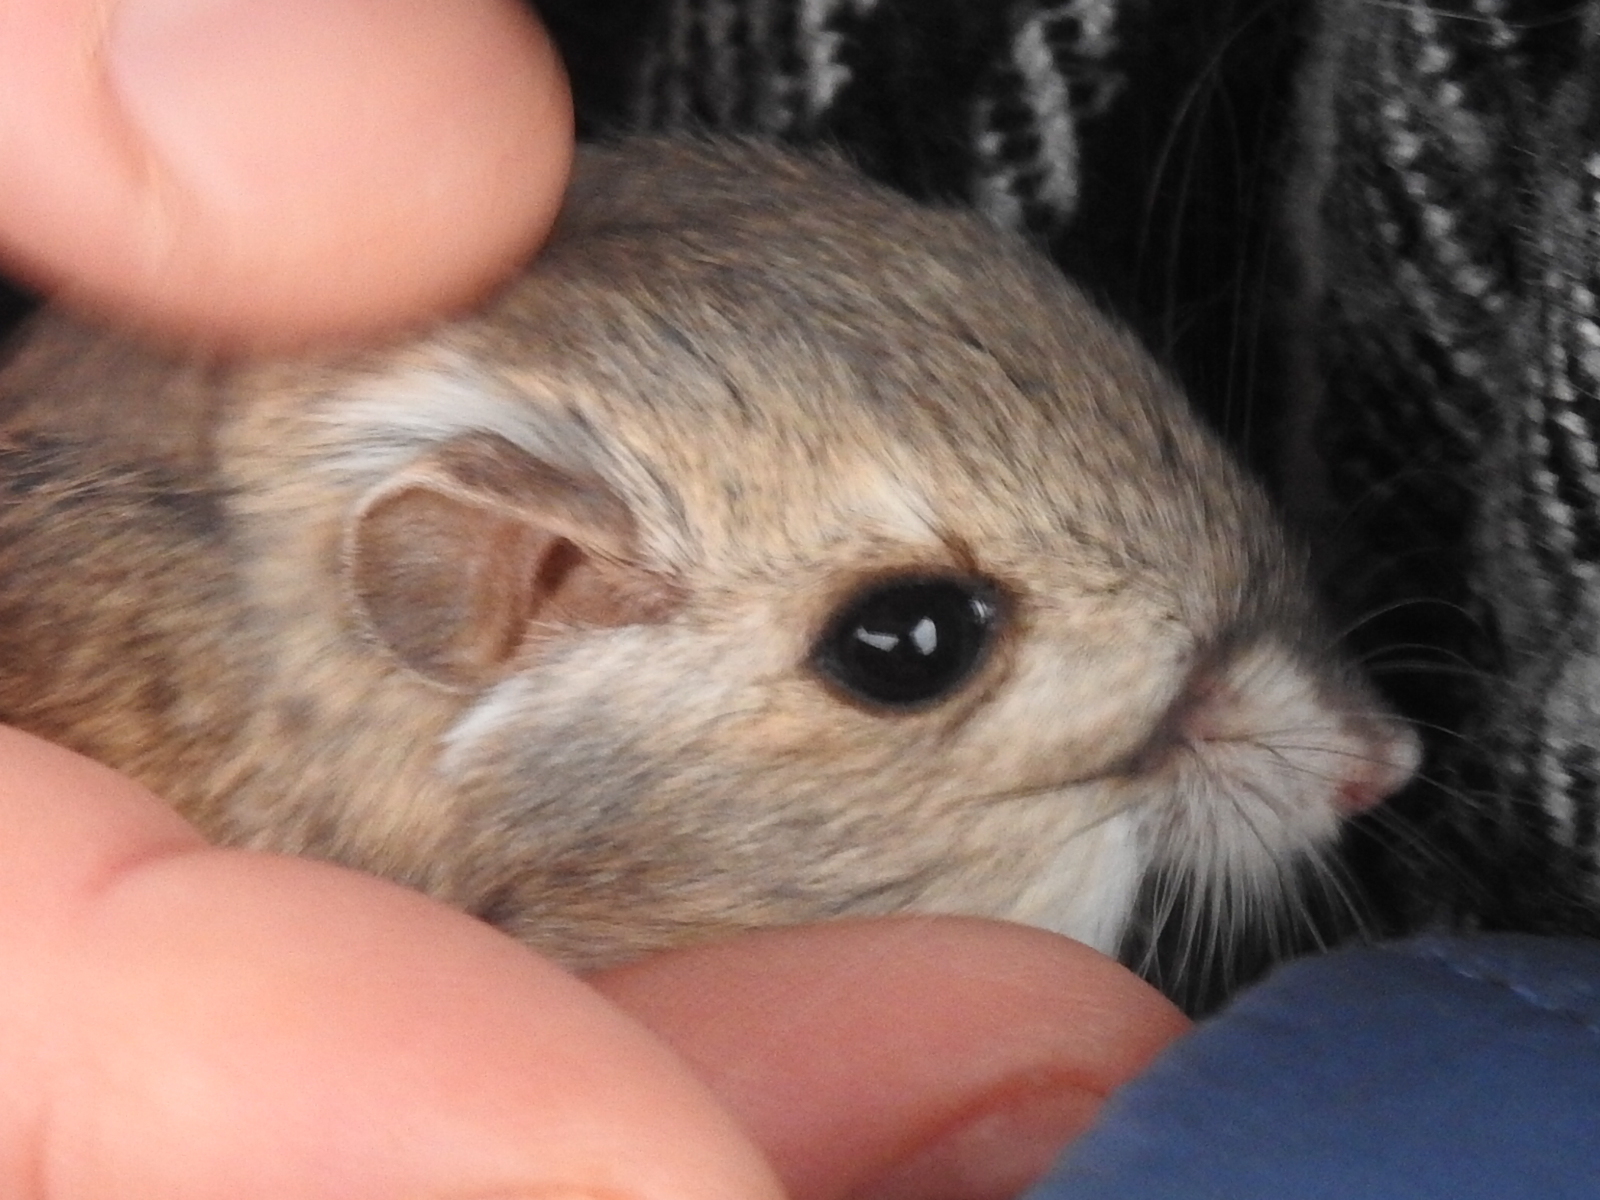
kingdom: Animalia
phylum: Chordata
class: Mammalia
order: Rodentia
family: Heteromyidae
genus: Dipodomys
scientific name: Dipodomys merriami
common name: Merriam's kangaroo rat
